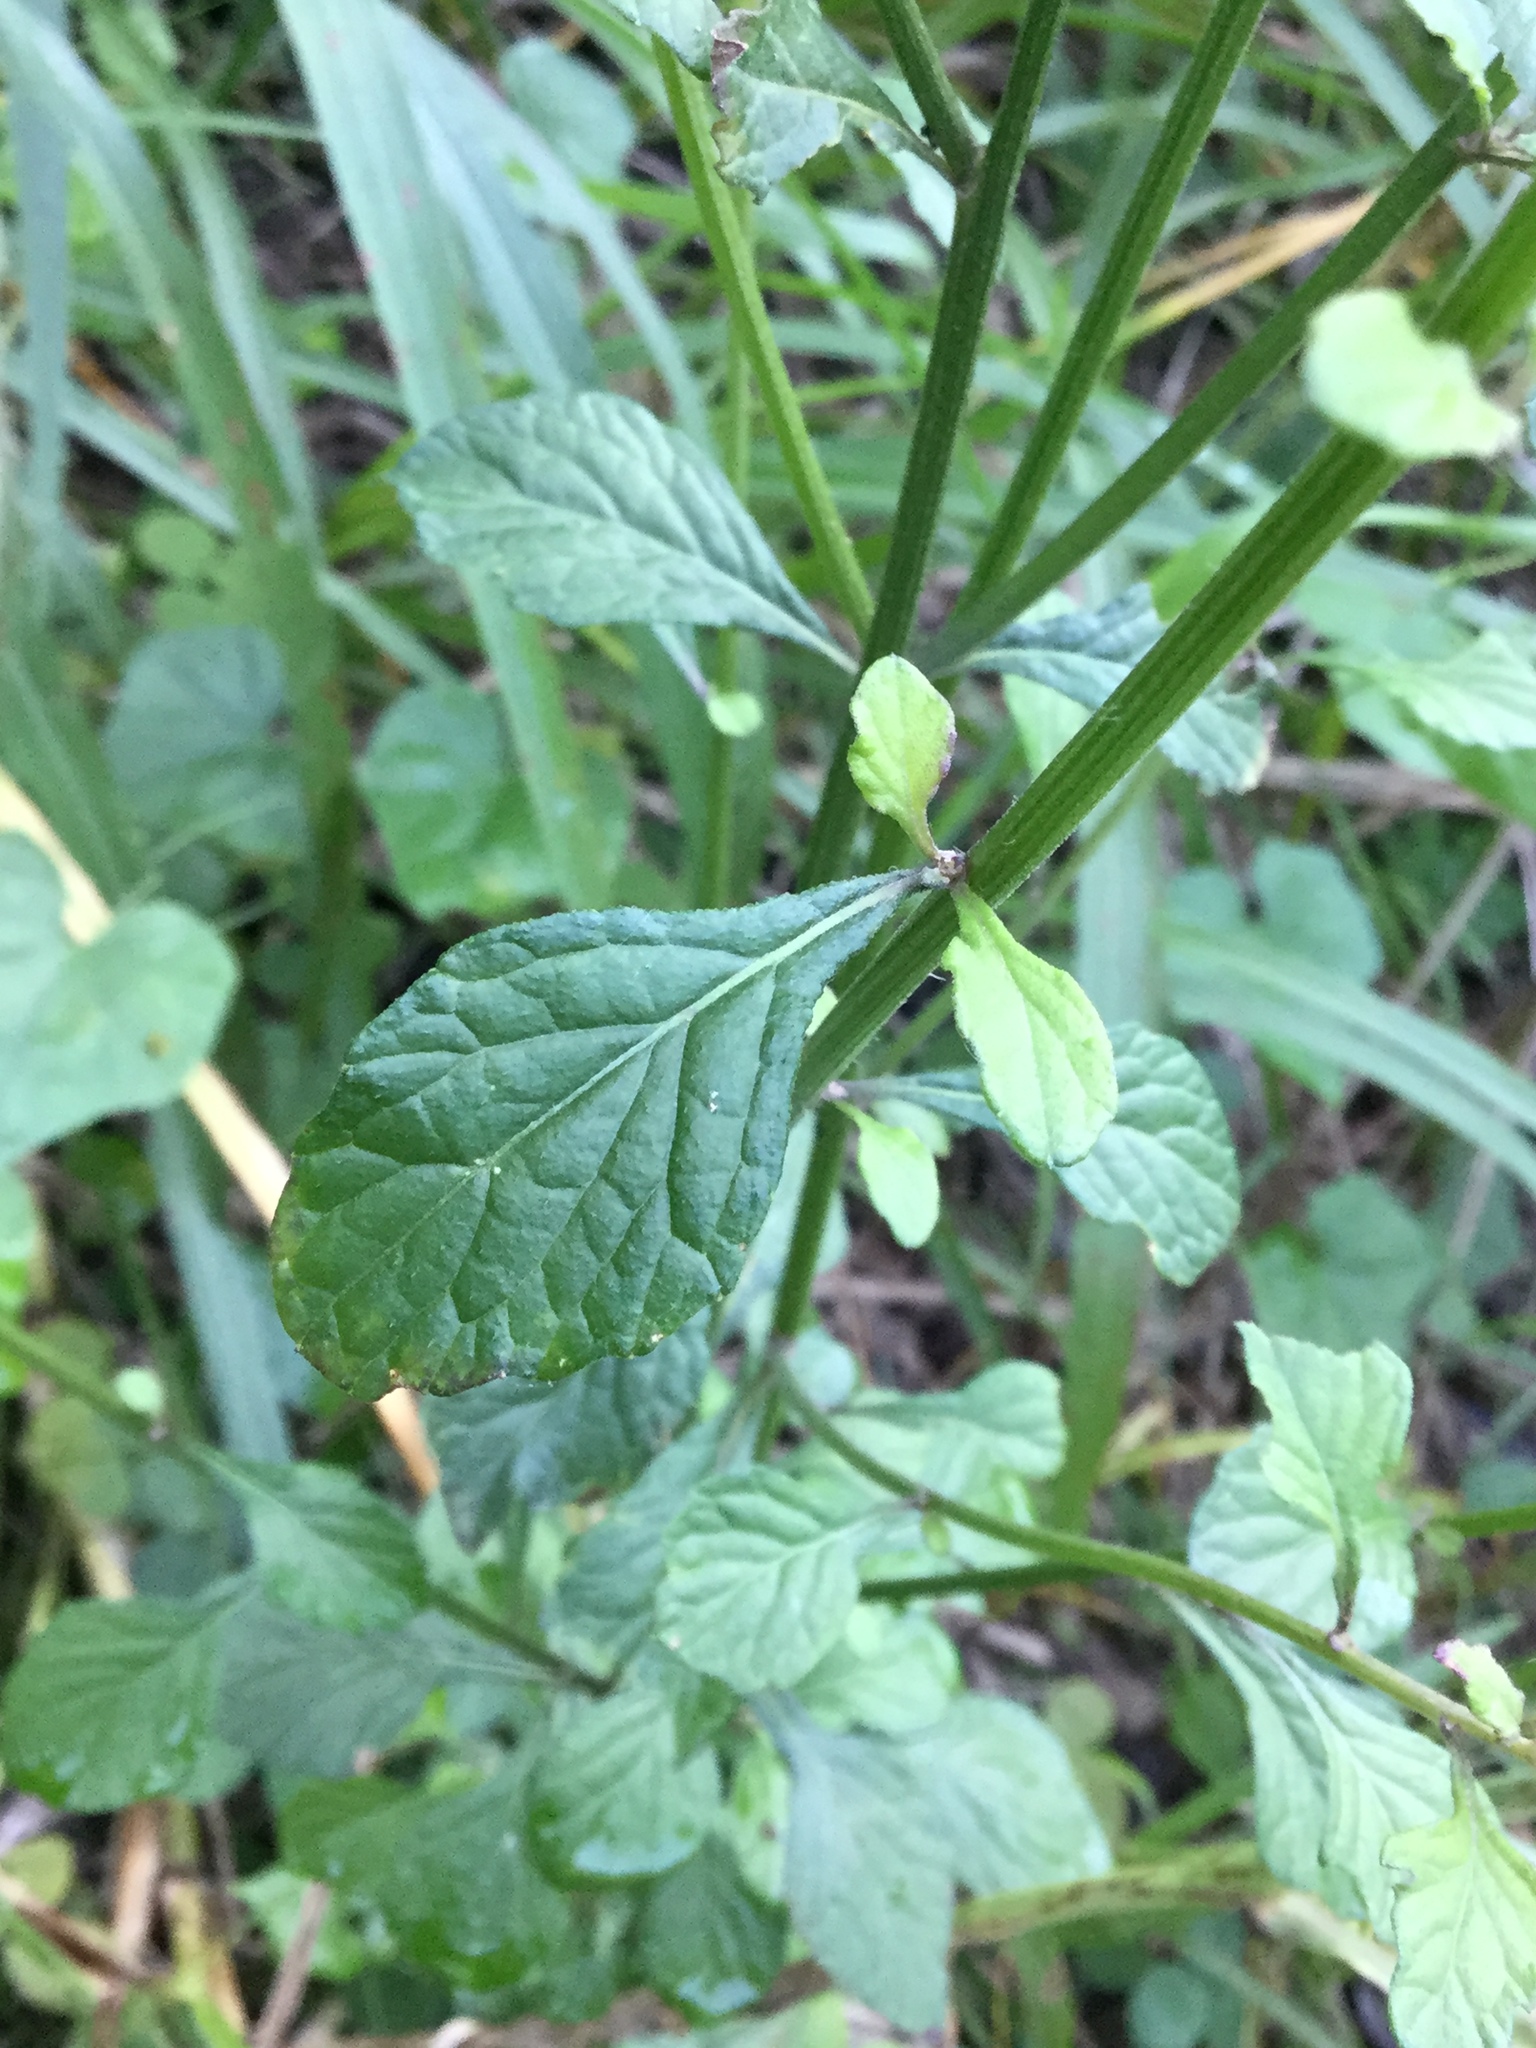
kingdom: Plantae
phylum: Tracheophyta
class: Magnoliopsida
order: Asterales
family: Asteraceae
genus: Cyanthillium
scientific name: Cyanthillium cinereum
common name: Little ironweed
